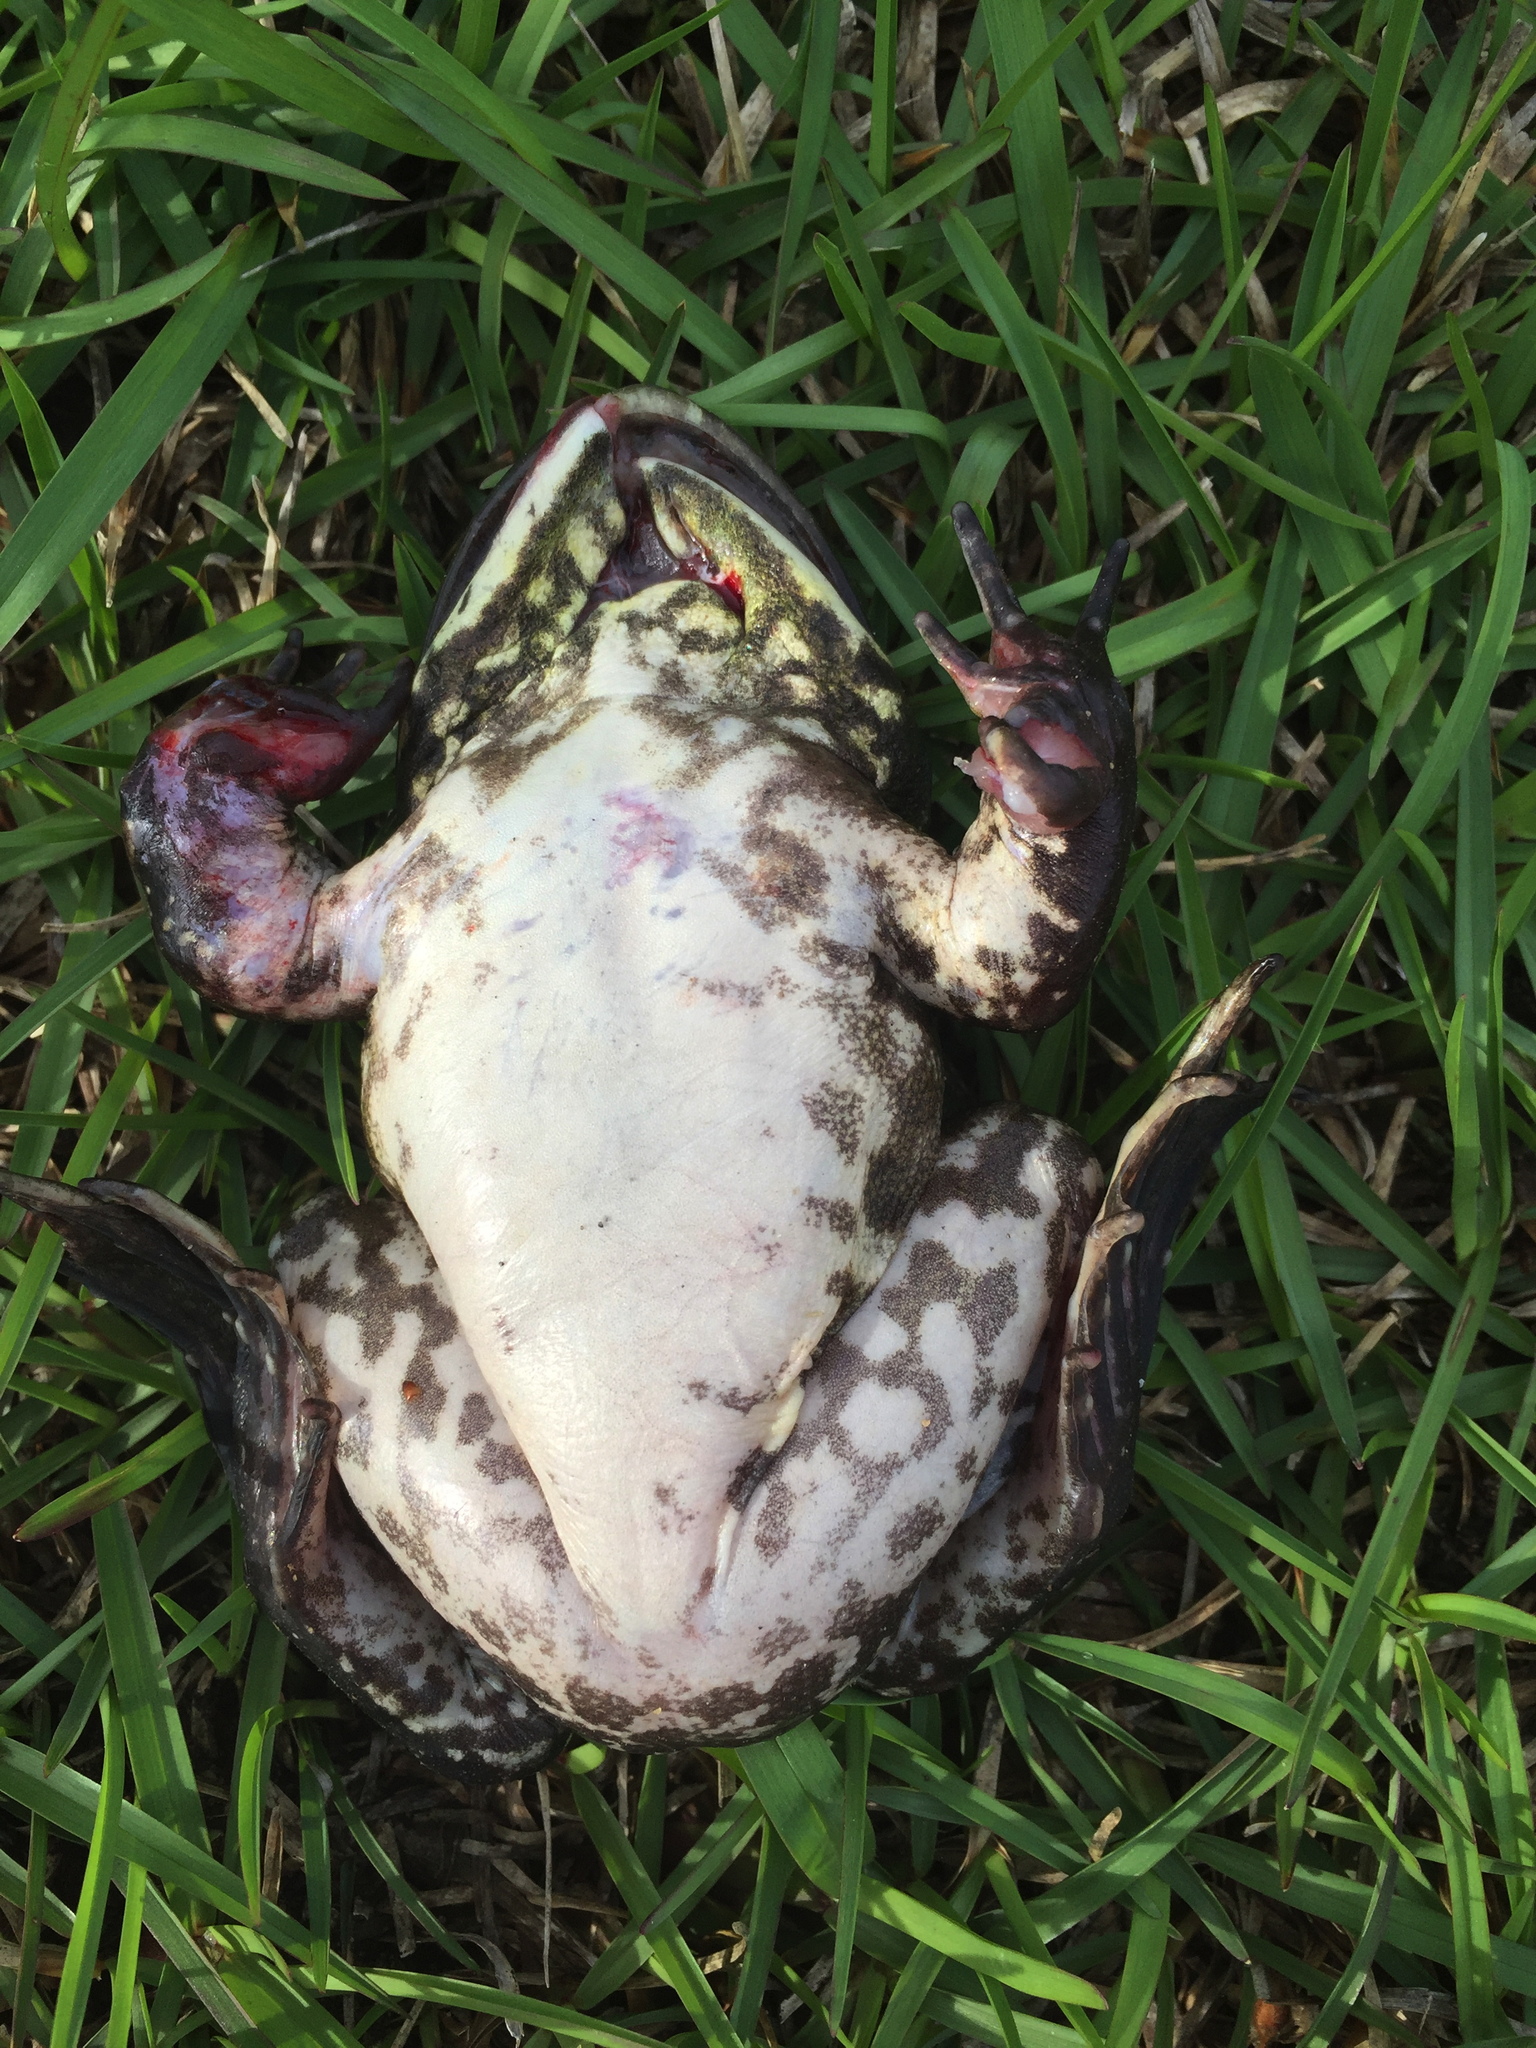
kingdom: Animalia
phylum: Chordata
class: Amphibia
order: Anura
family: Ranidae
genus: Lithobates
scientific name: Lithobates catesbeianus
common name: American bullfrog
